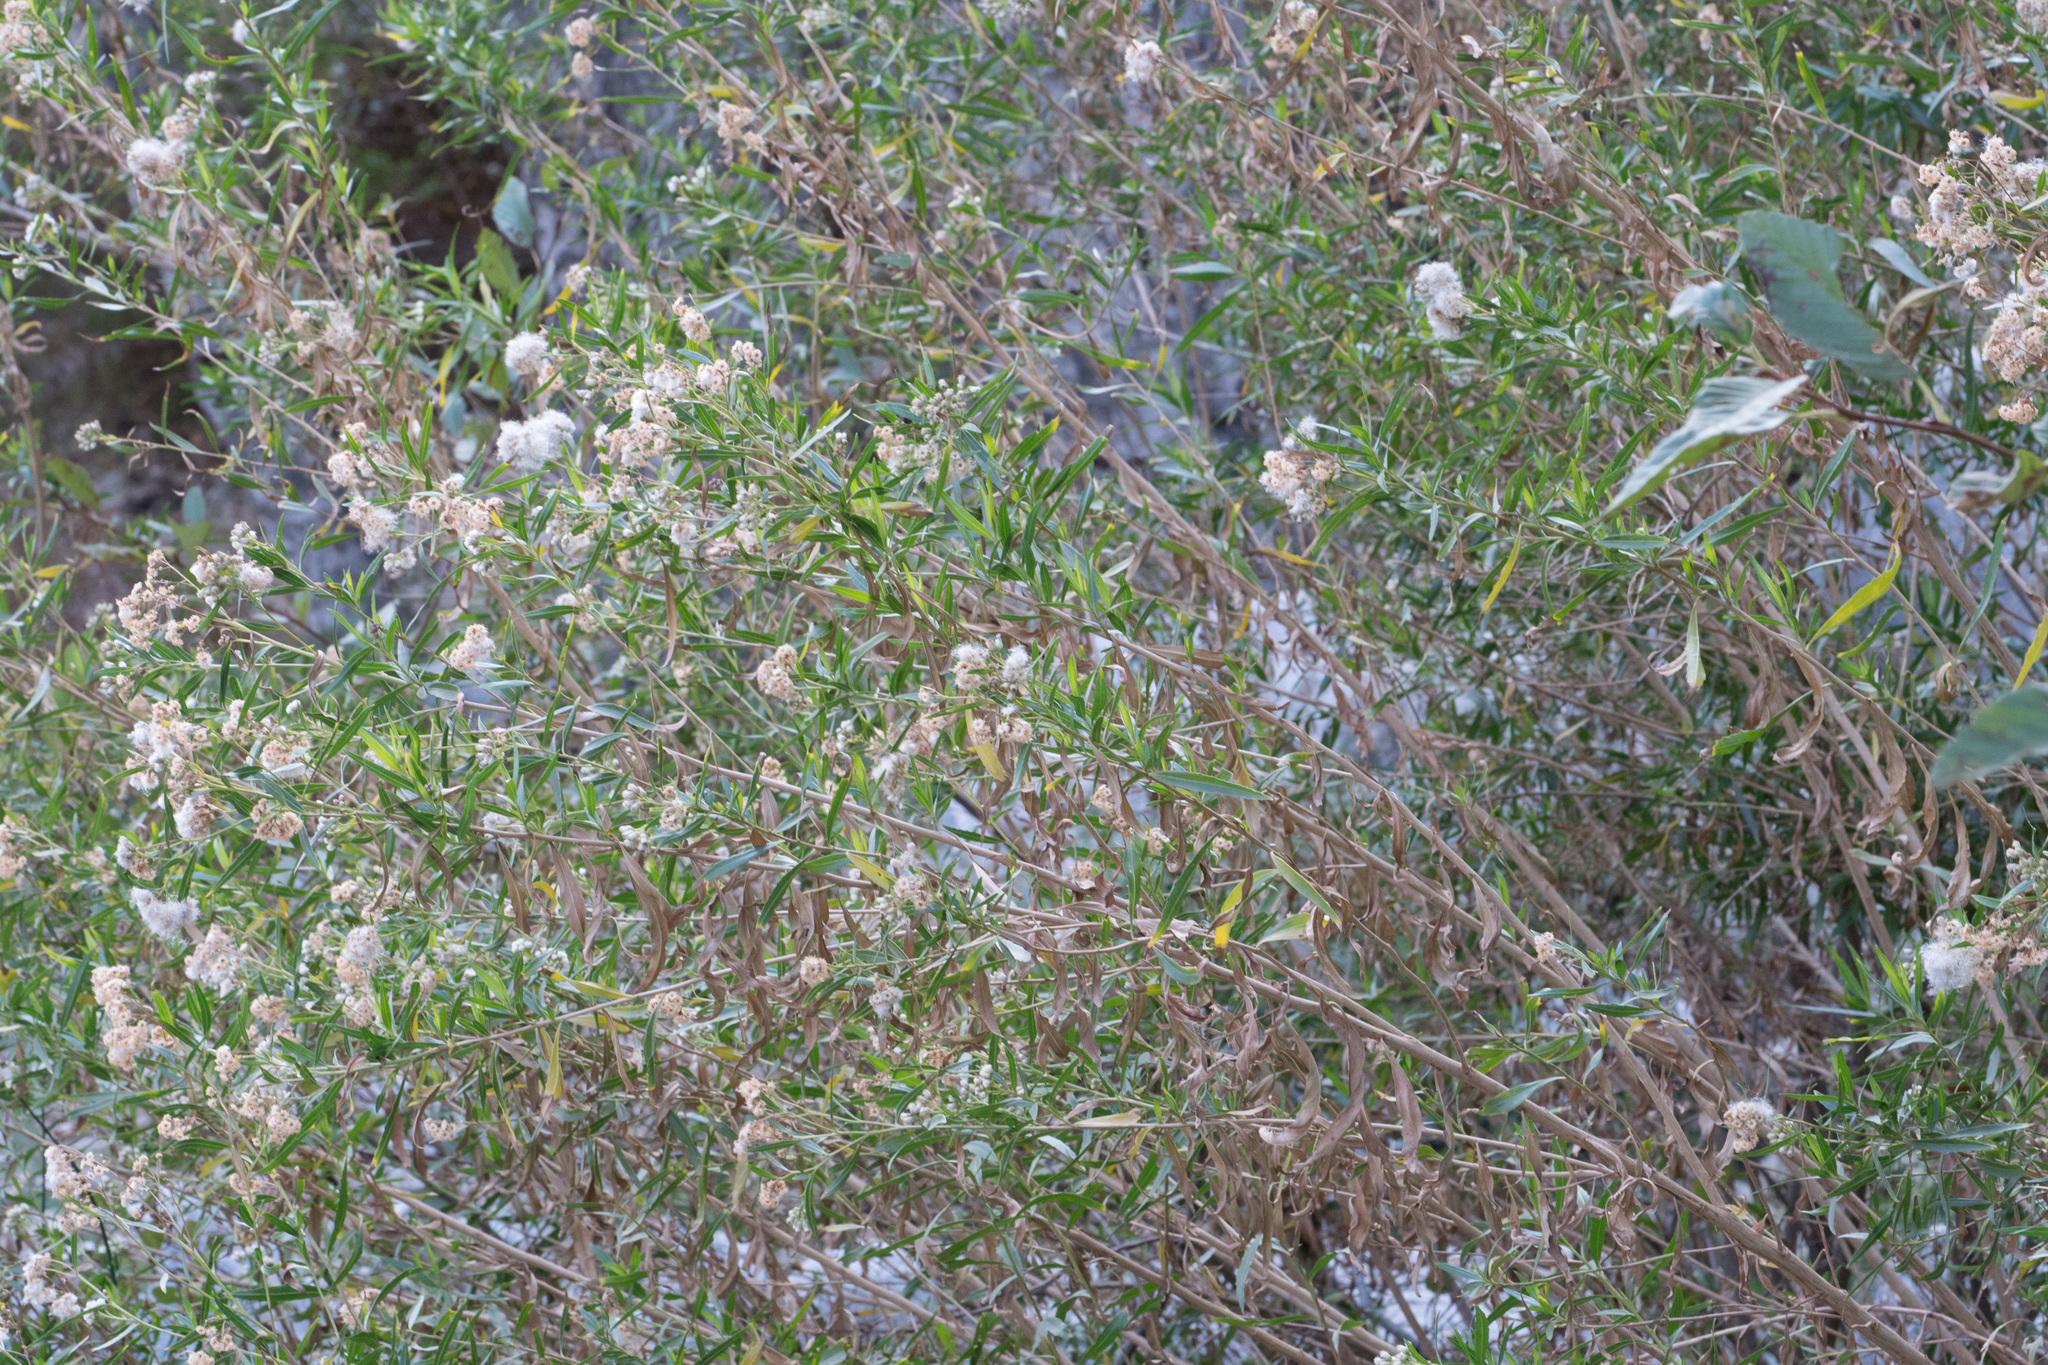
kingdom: Plantae
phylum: Tracheophyta
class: Magnoliopsida
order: Asterales
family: Asteraceae
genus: Baccharis
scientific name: Baccharis salicifolia
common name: Sticky baccharis
